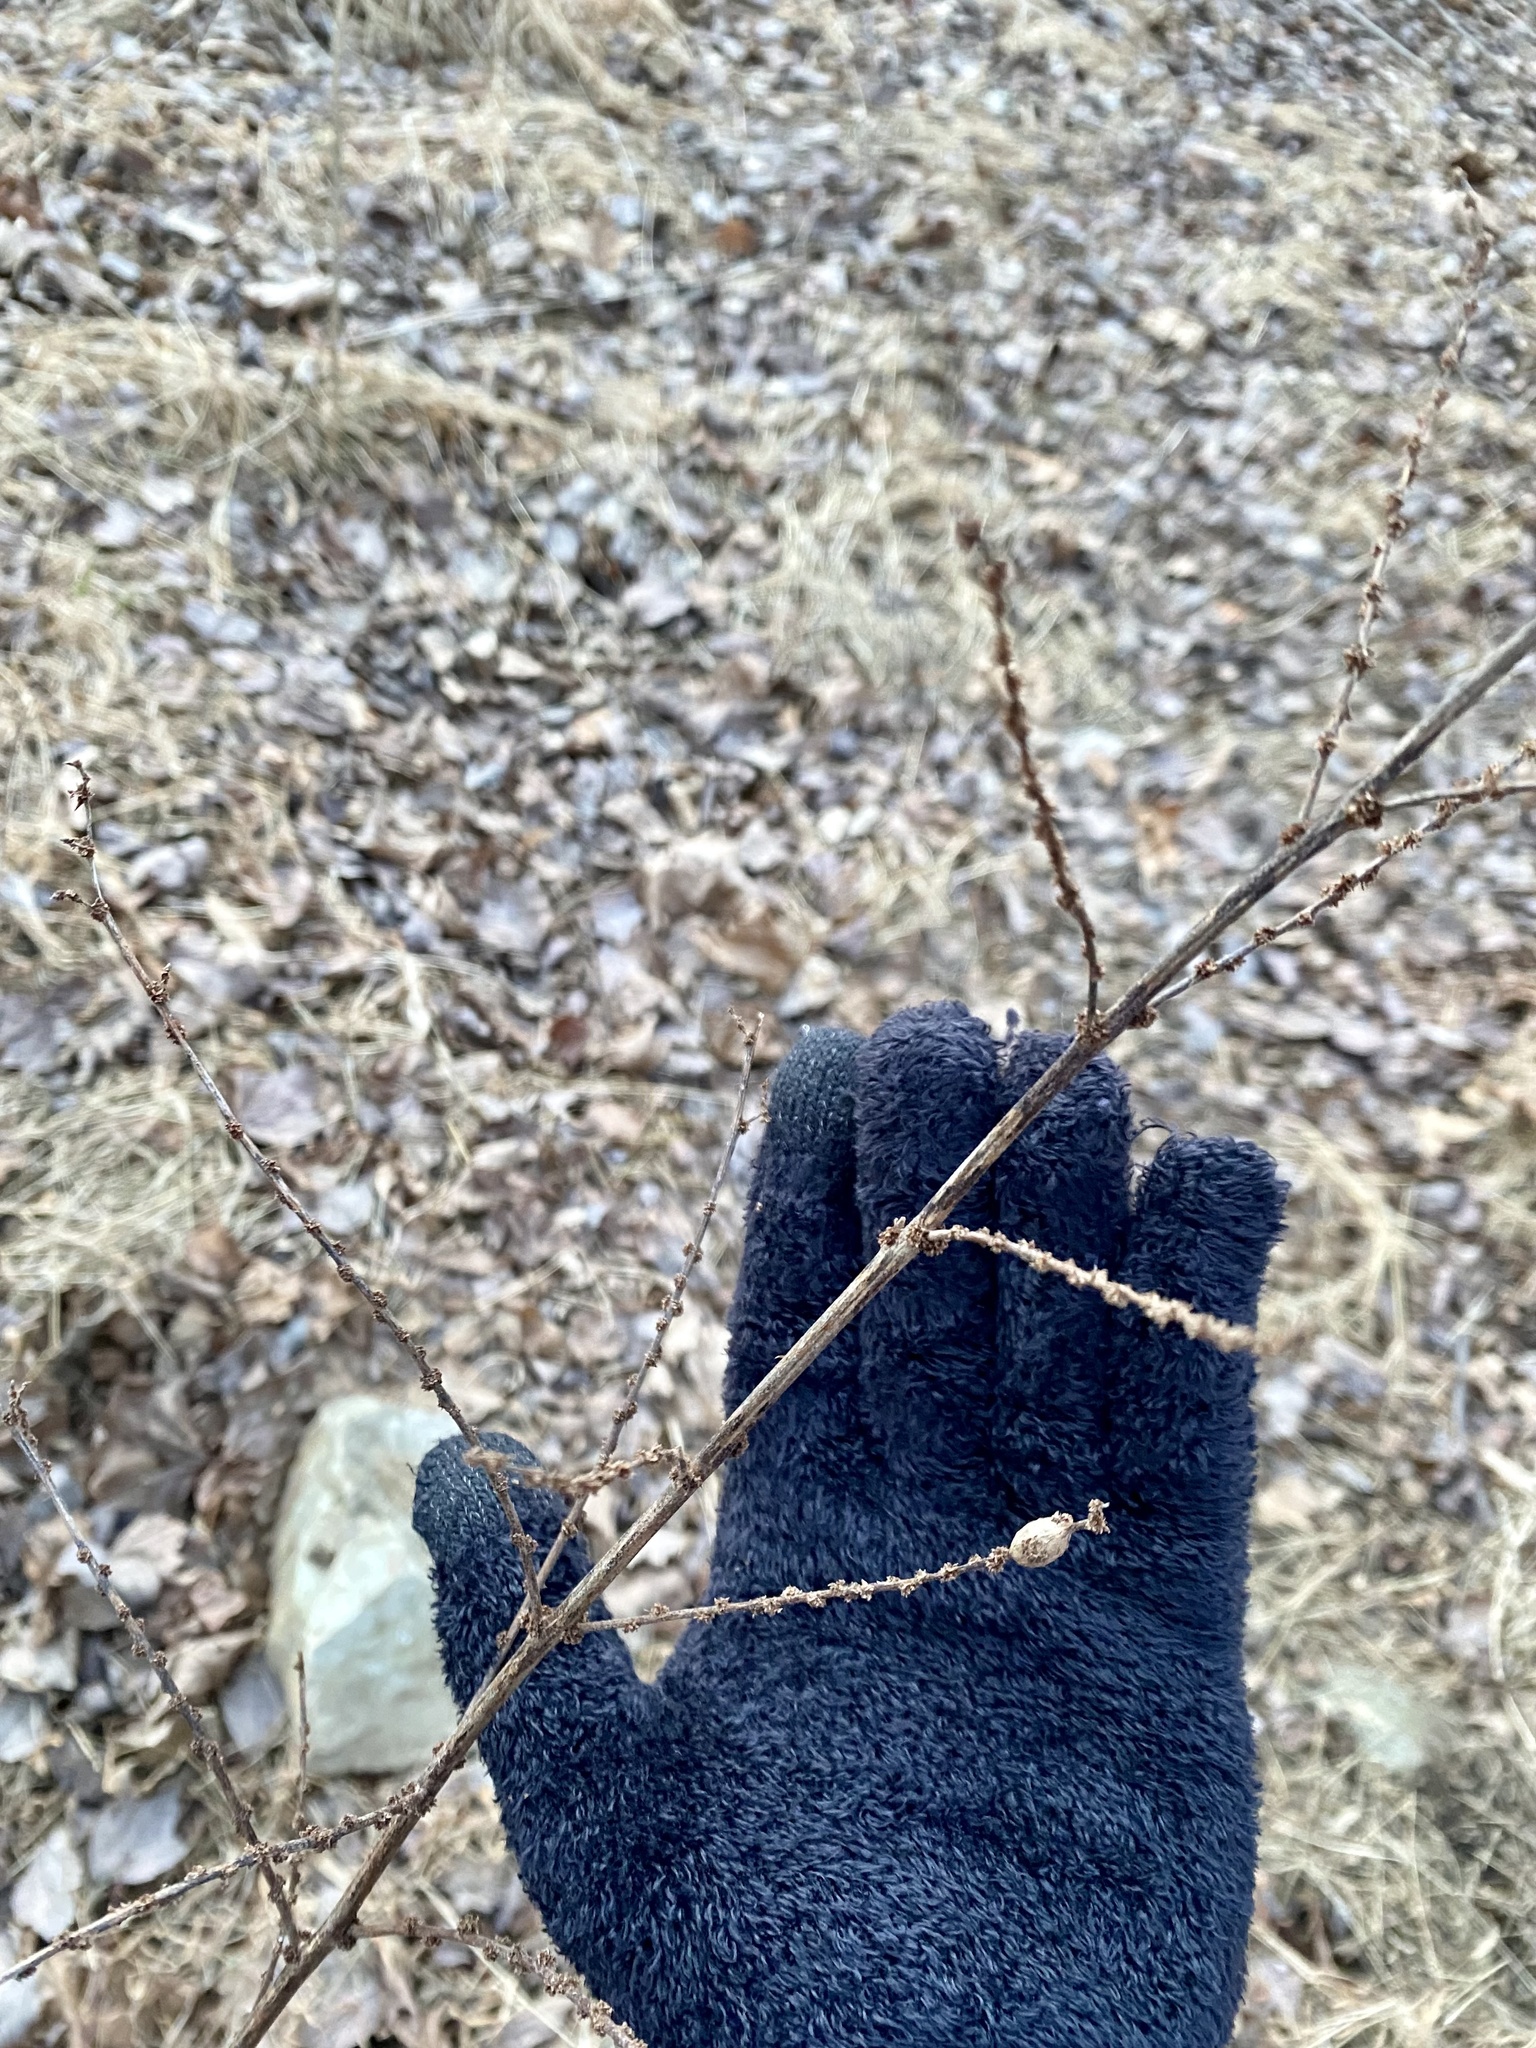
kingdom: Animalia
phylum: Arthropoda
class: Insecta
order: Diptera
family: Cecidomyiidae
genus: Neolasioptera
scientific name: Neolasioptera boehmeriae
